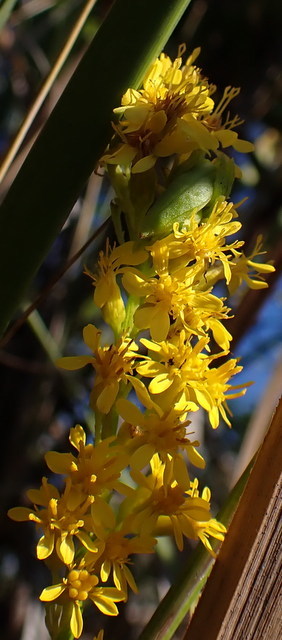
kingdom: Plantae
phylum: Tracheophyta
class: Magnoliopsida
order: Asterales
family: Asteraceae
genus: Solidago
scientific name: Solidago mexicana
